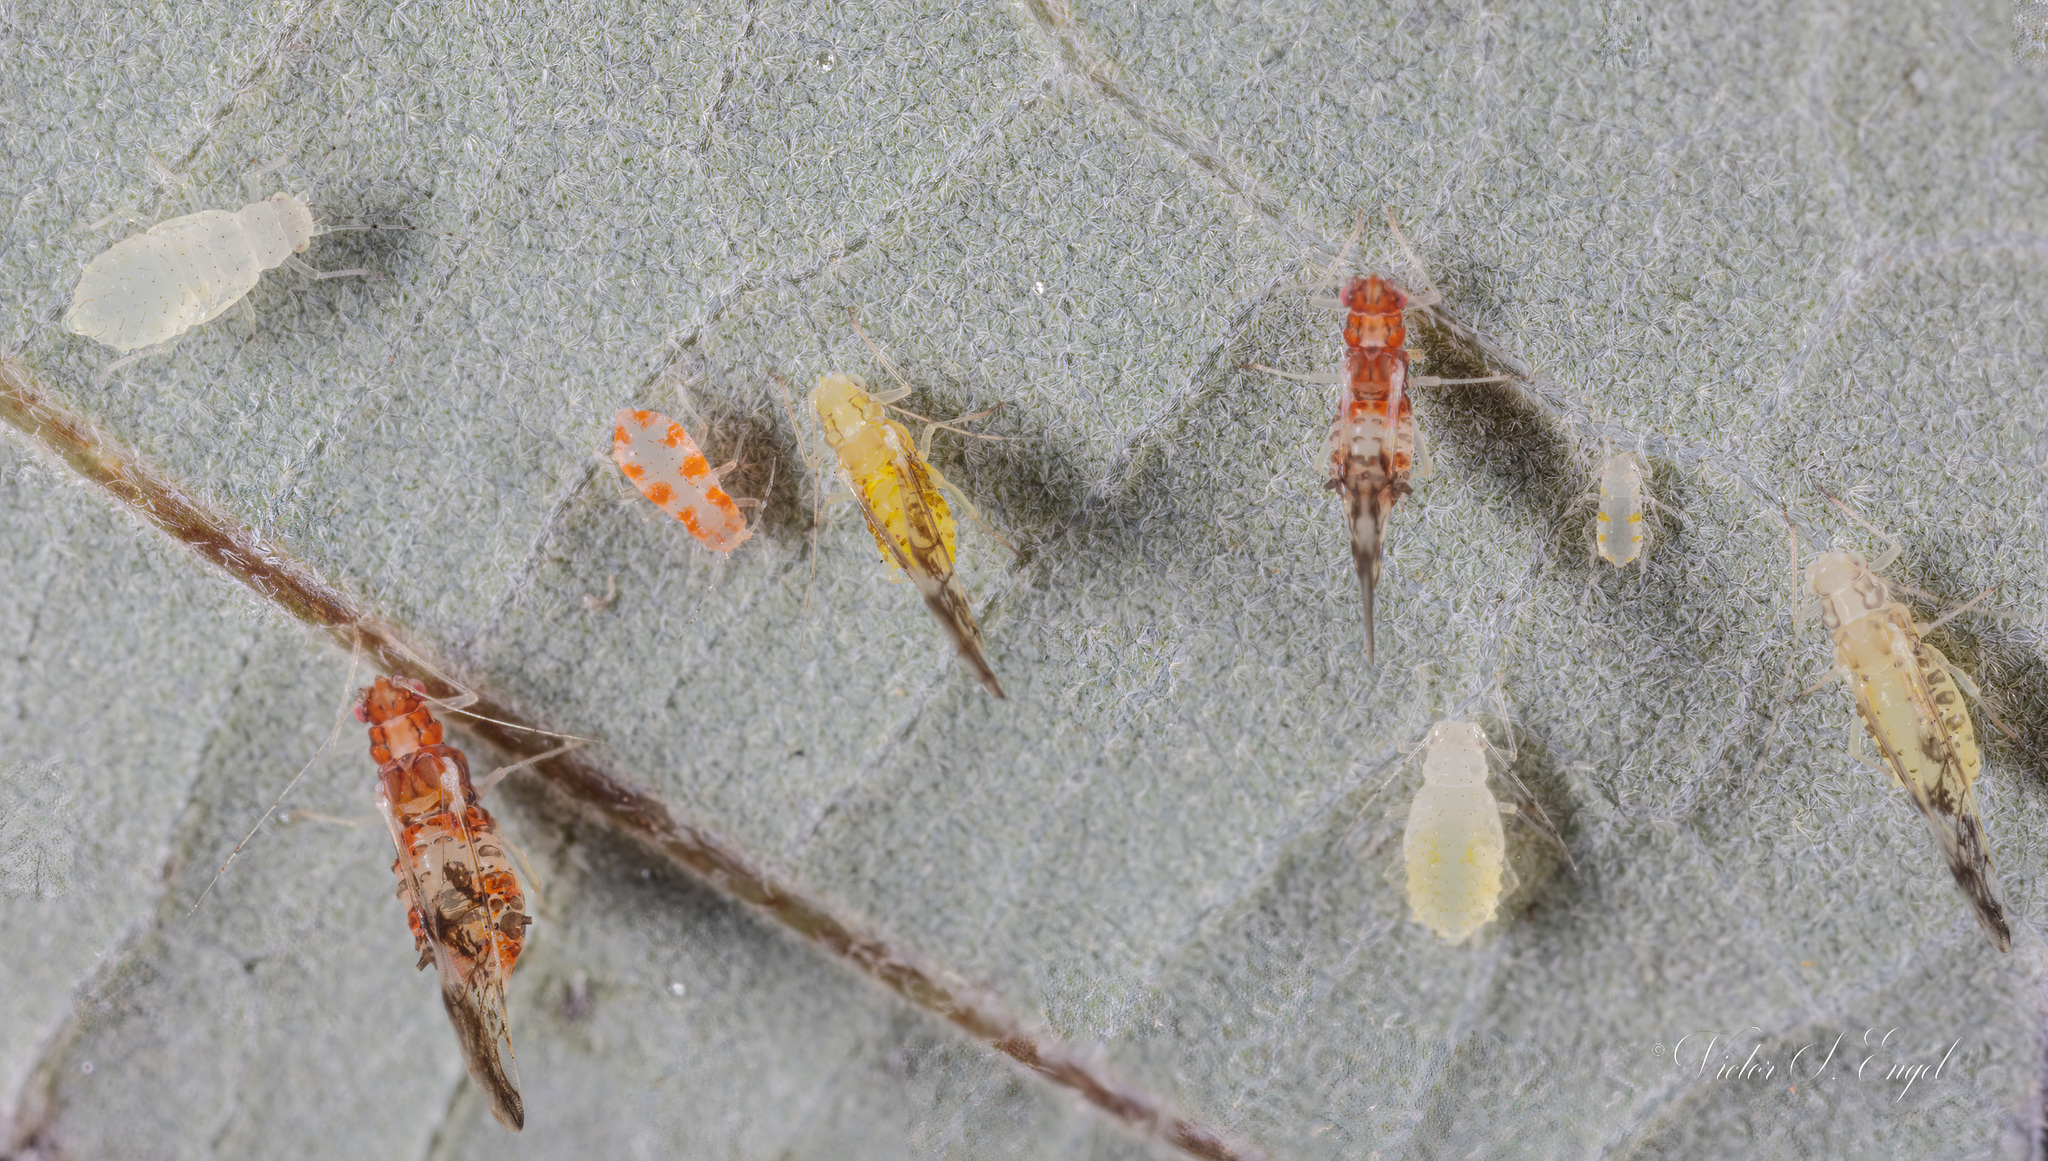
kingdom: Animalia
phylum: Arthropoda
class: Insecta
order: Hemiptera
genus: Neomyzocallis
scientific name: Neomyzocallis
